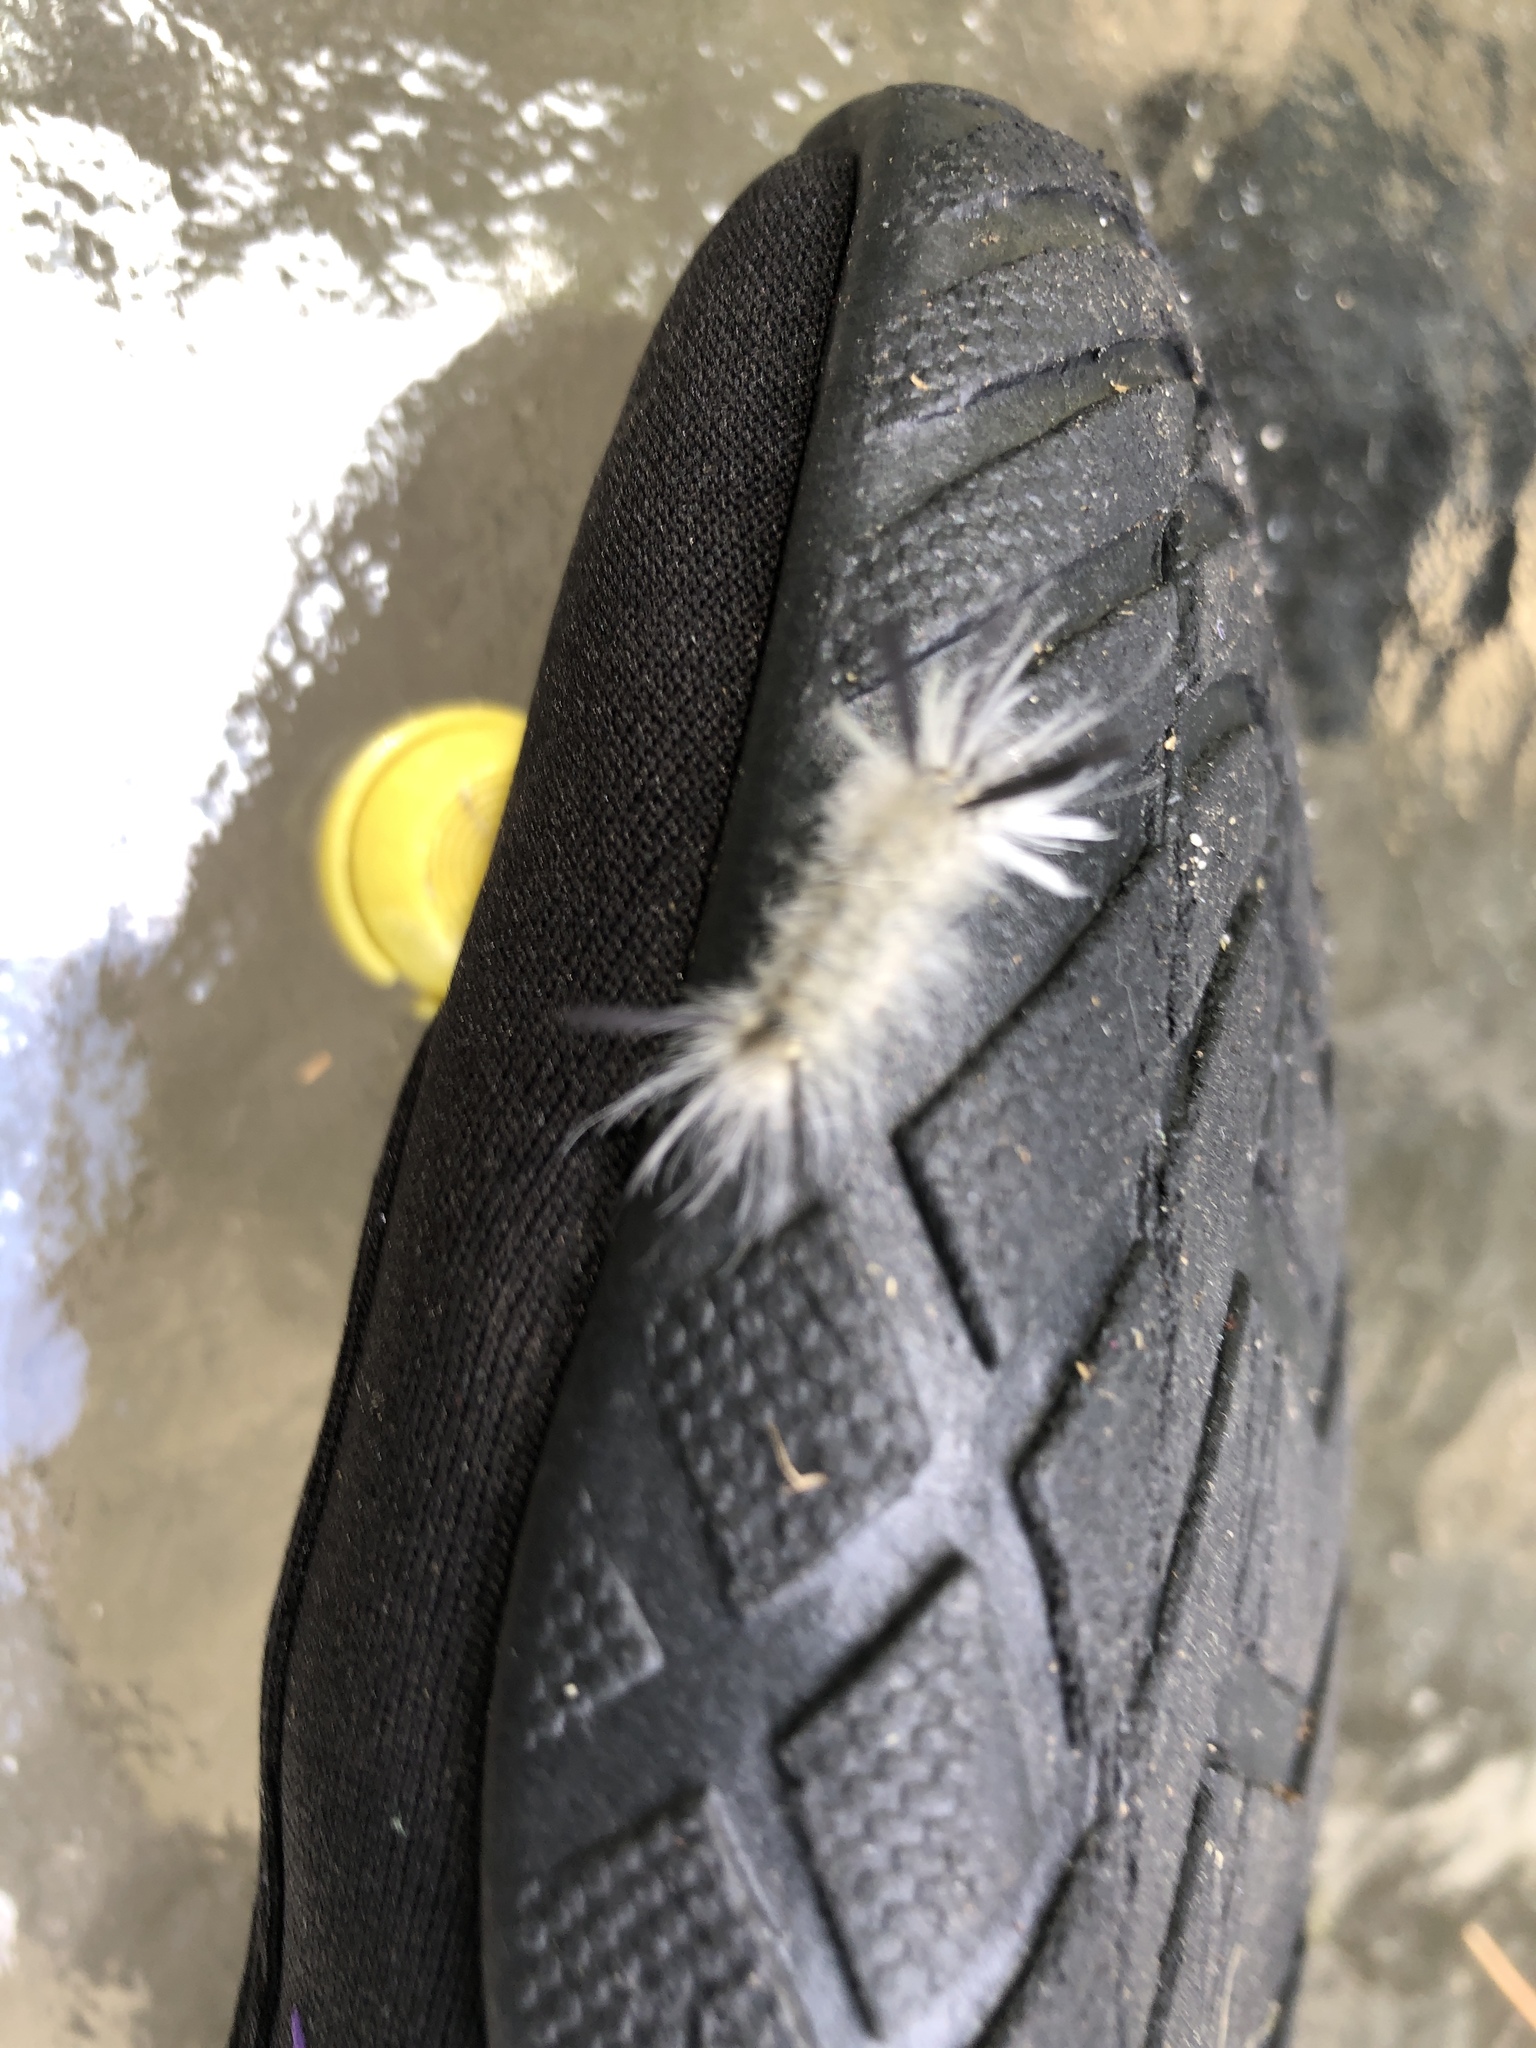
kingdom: Animalia
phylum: Arthropoda
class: Insecta
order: Lepidoptera
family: Erebidae
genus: Halysidota
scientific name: Halysidota tessellaris
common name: Banded tussock moth
